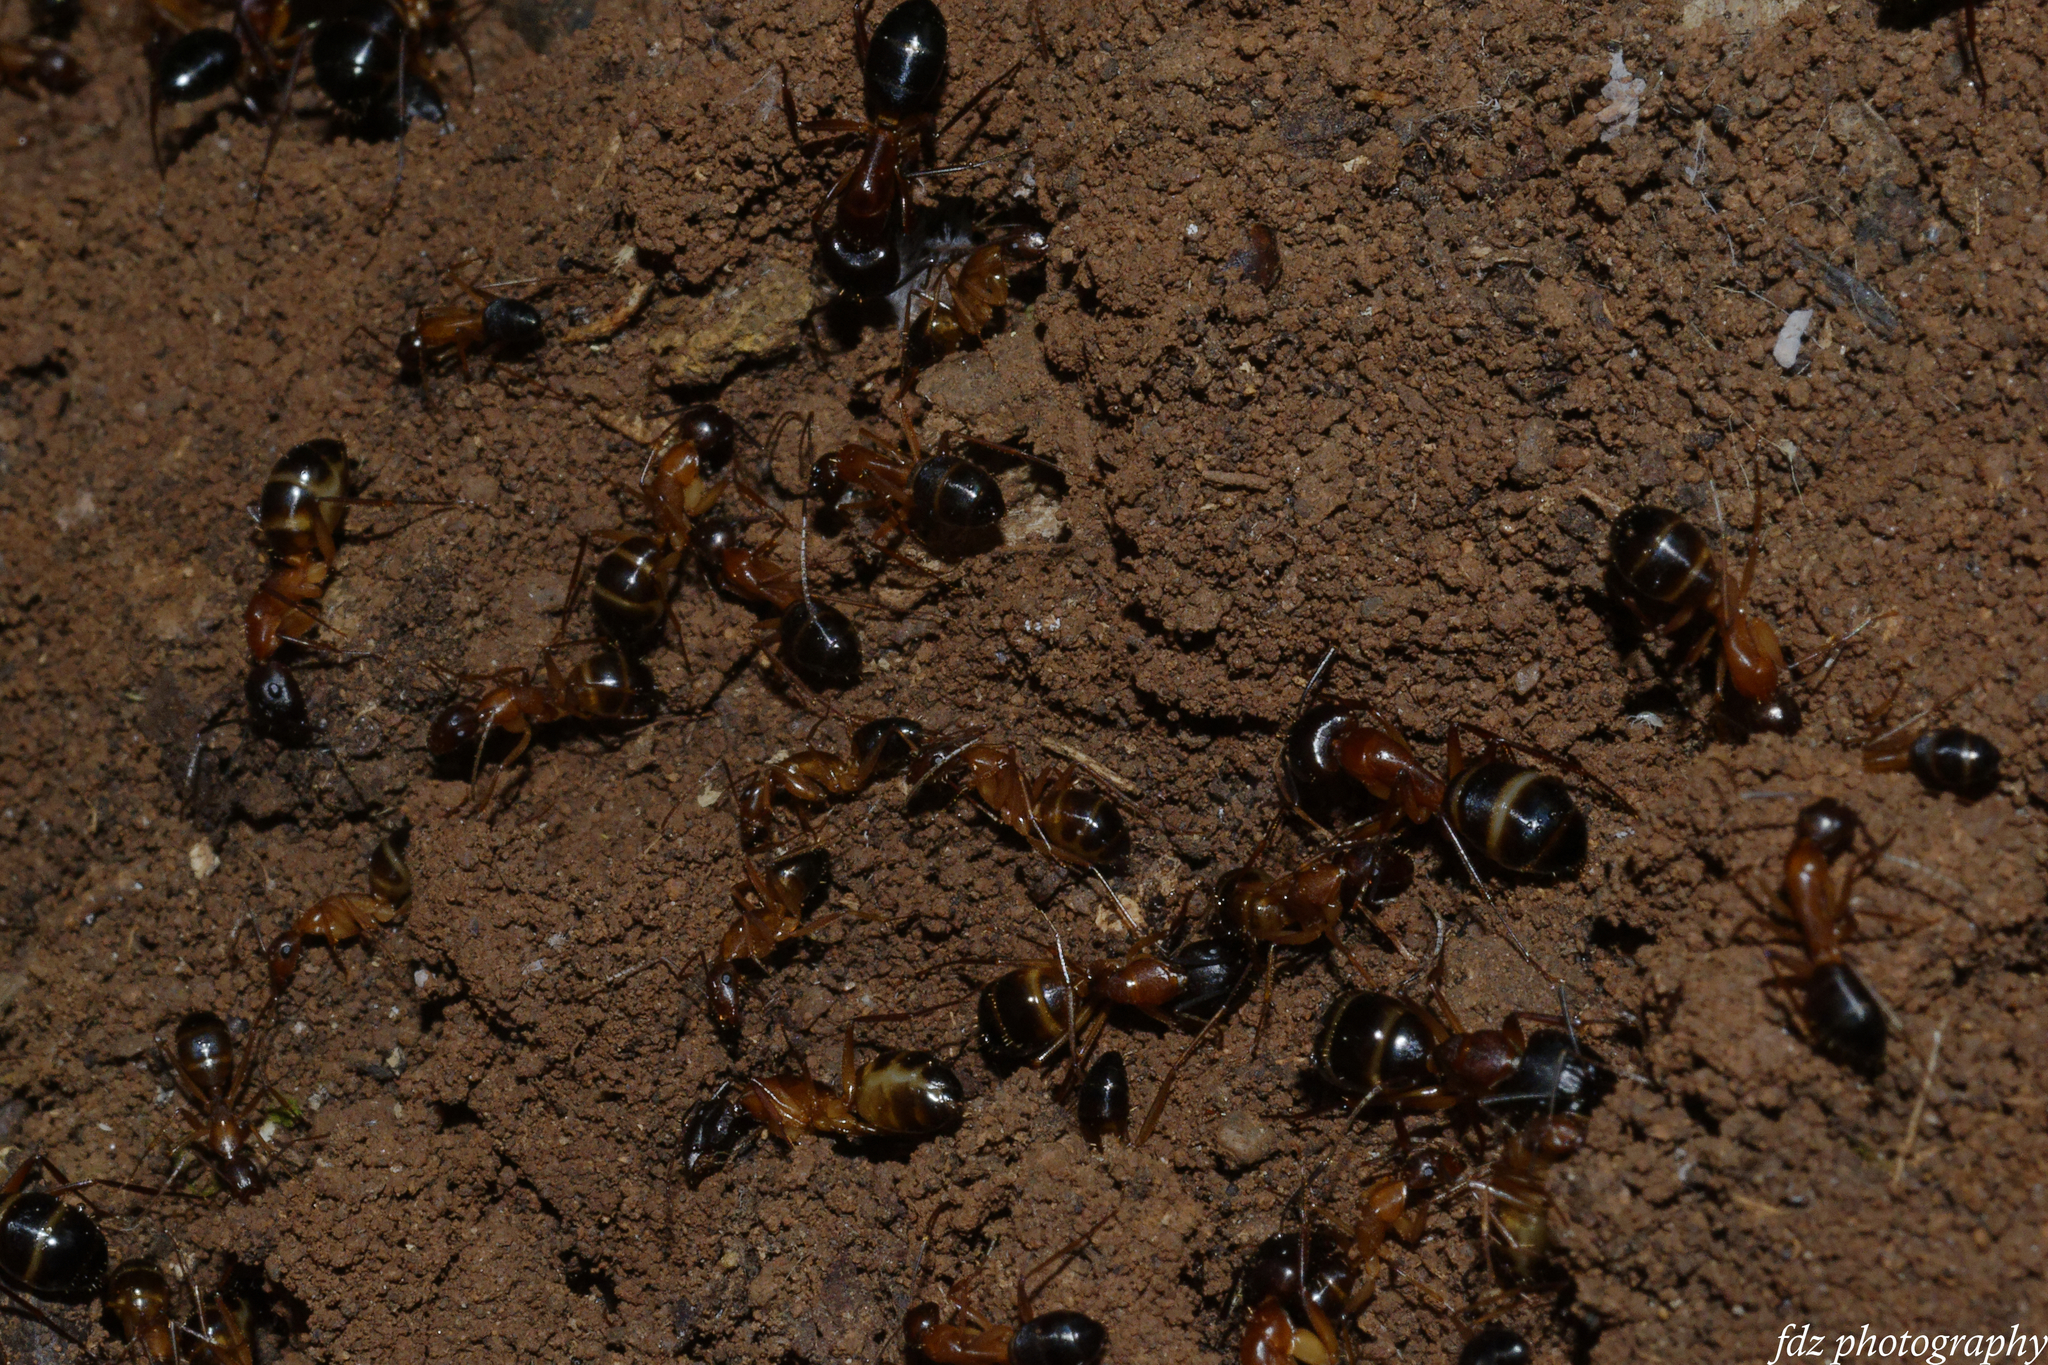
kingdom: Animalia
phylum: Arthropoda
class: Insecta
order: Hymenoptera
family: Formicidae
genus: Camponotus
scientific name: Camponotus pilicornis
